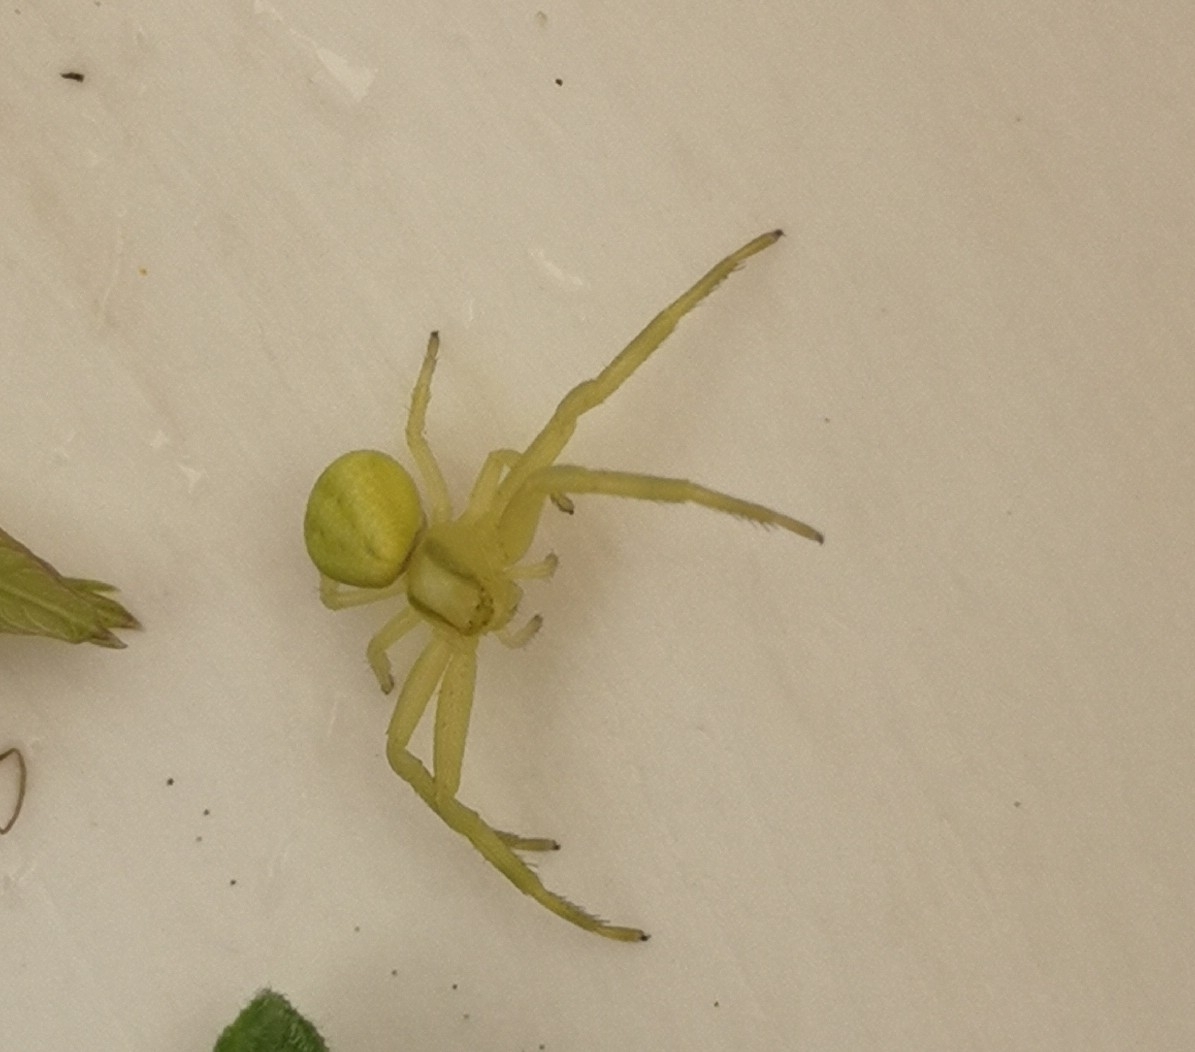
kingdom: Animalia
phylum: Arthropoda
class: Arachnida
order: Araneae
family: Thomisidae
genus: Misumena
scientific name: Misumena vatia
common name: Goldenrod crab spider
